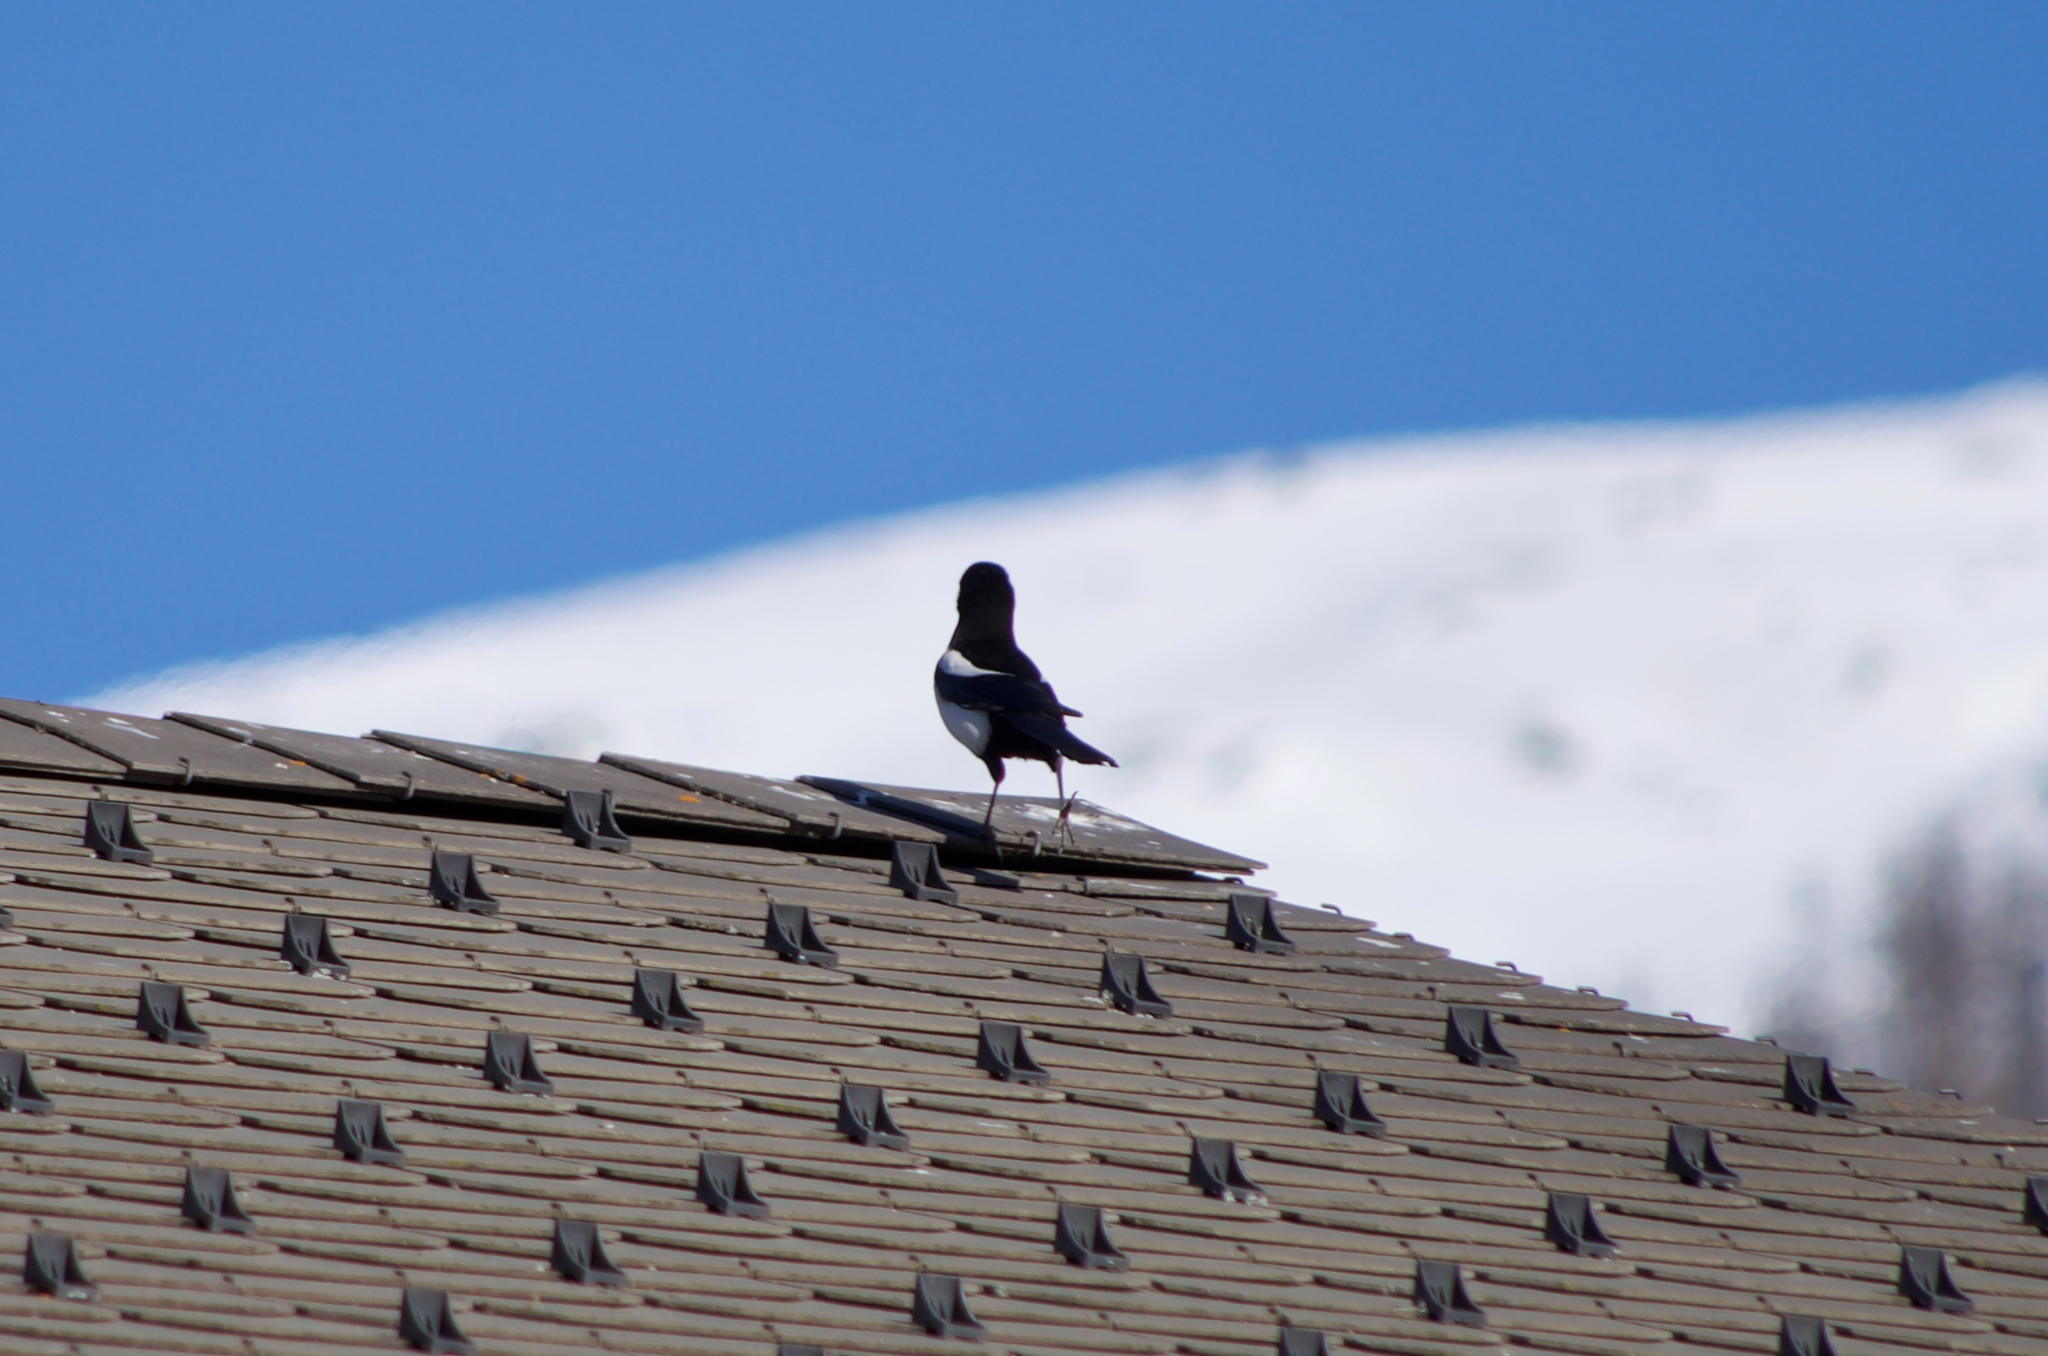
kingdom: Animalia
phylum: Chordata
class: Aves
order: Passeriformes
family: Corvidae
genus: Pica
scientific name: Pica pica
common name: Eurasian magpie
